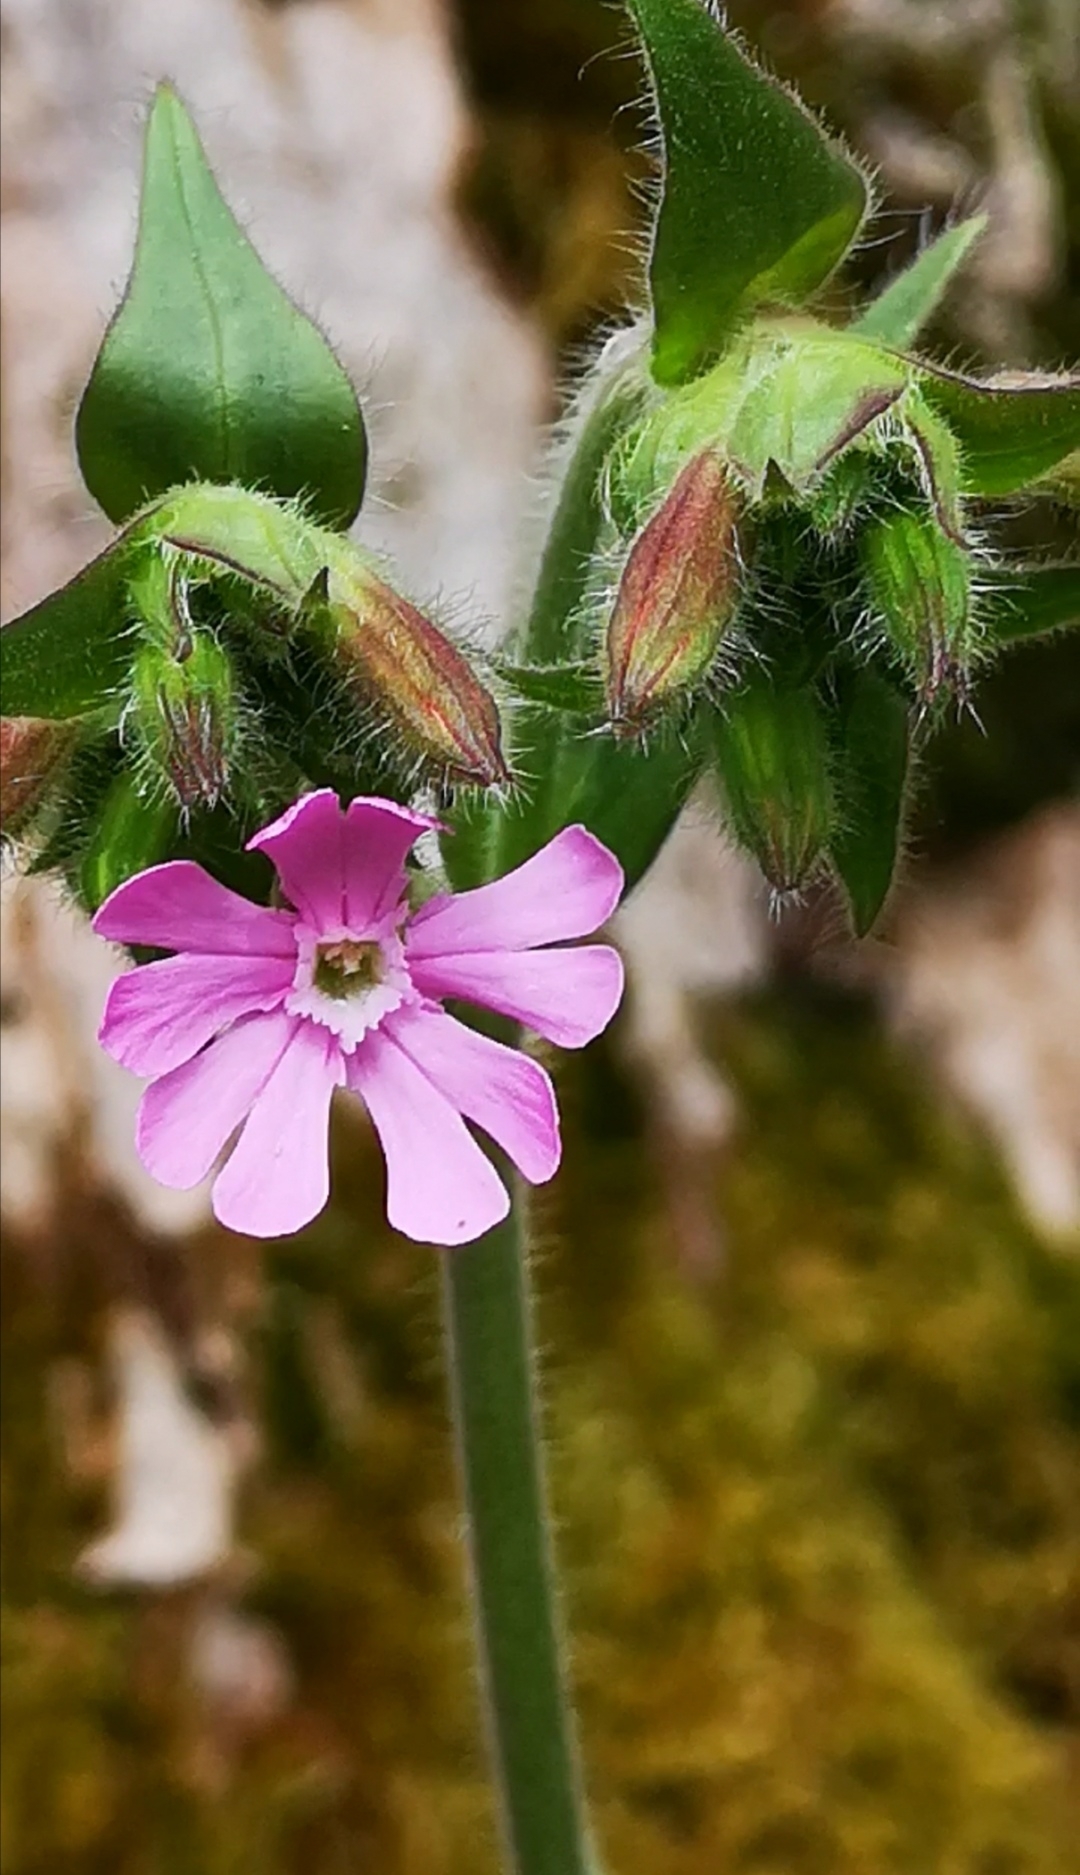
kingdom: Plantae
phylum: Tracheophyta
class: Magnoliopsida
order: Caryophyllales
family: Caryophyllaceae
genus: Silene
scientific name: Silene dioica
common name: Red campion
